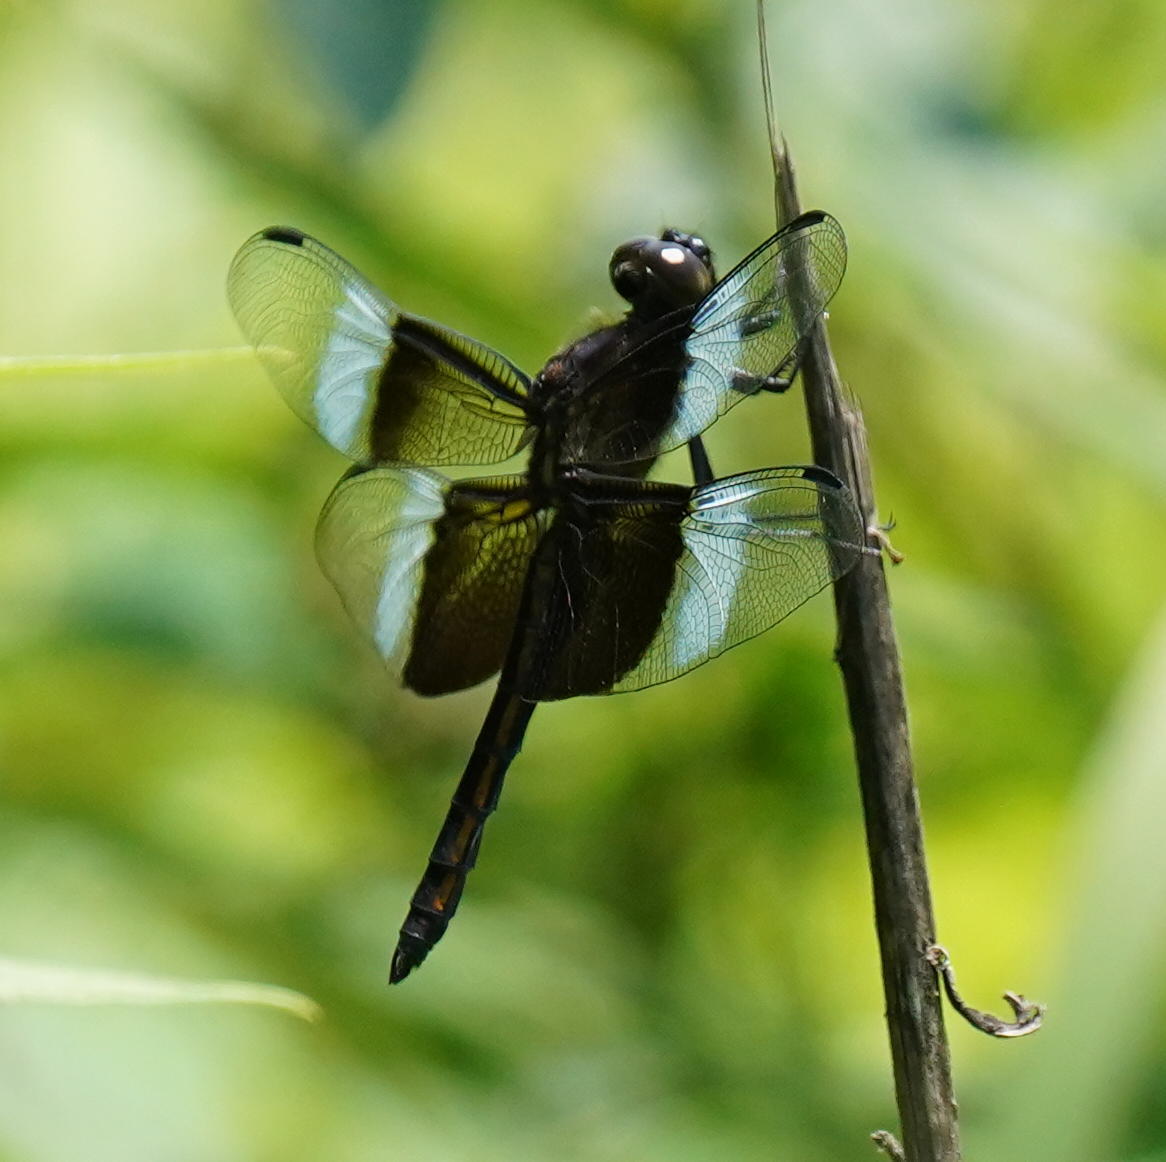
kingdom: Animalia
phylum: Arthropoda
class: Insecta
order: Odonata
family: Libellulidae
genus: Libellula
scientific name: Libellula luctuosa
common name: Widow skimmer
